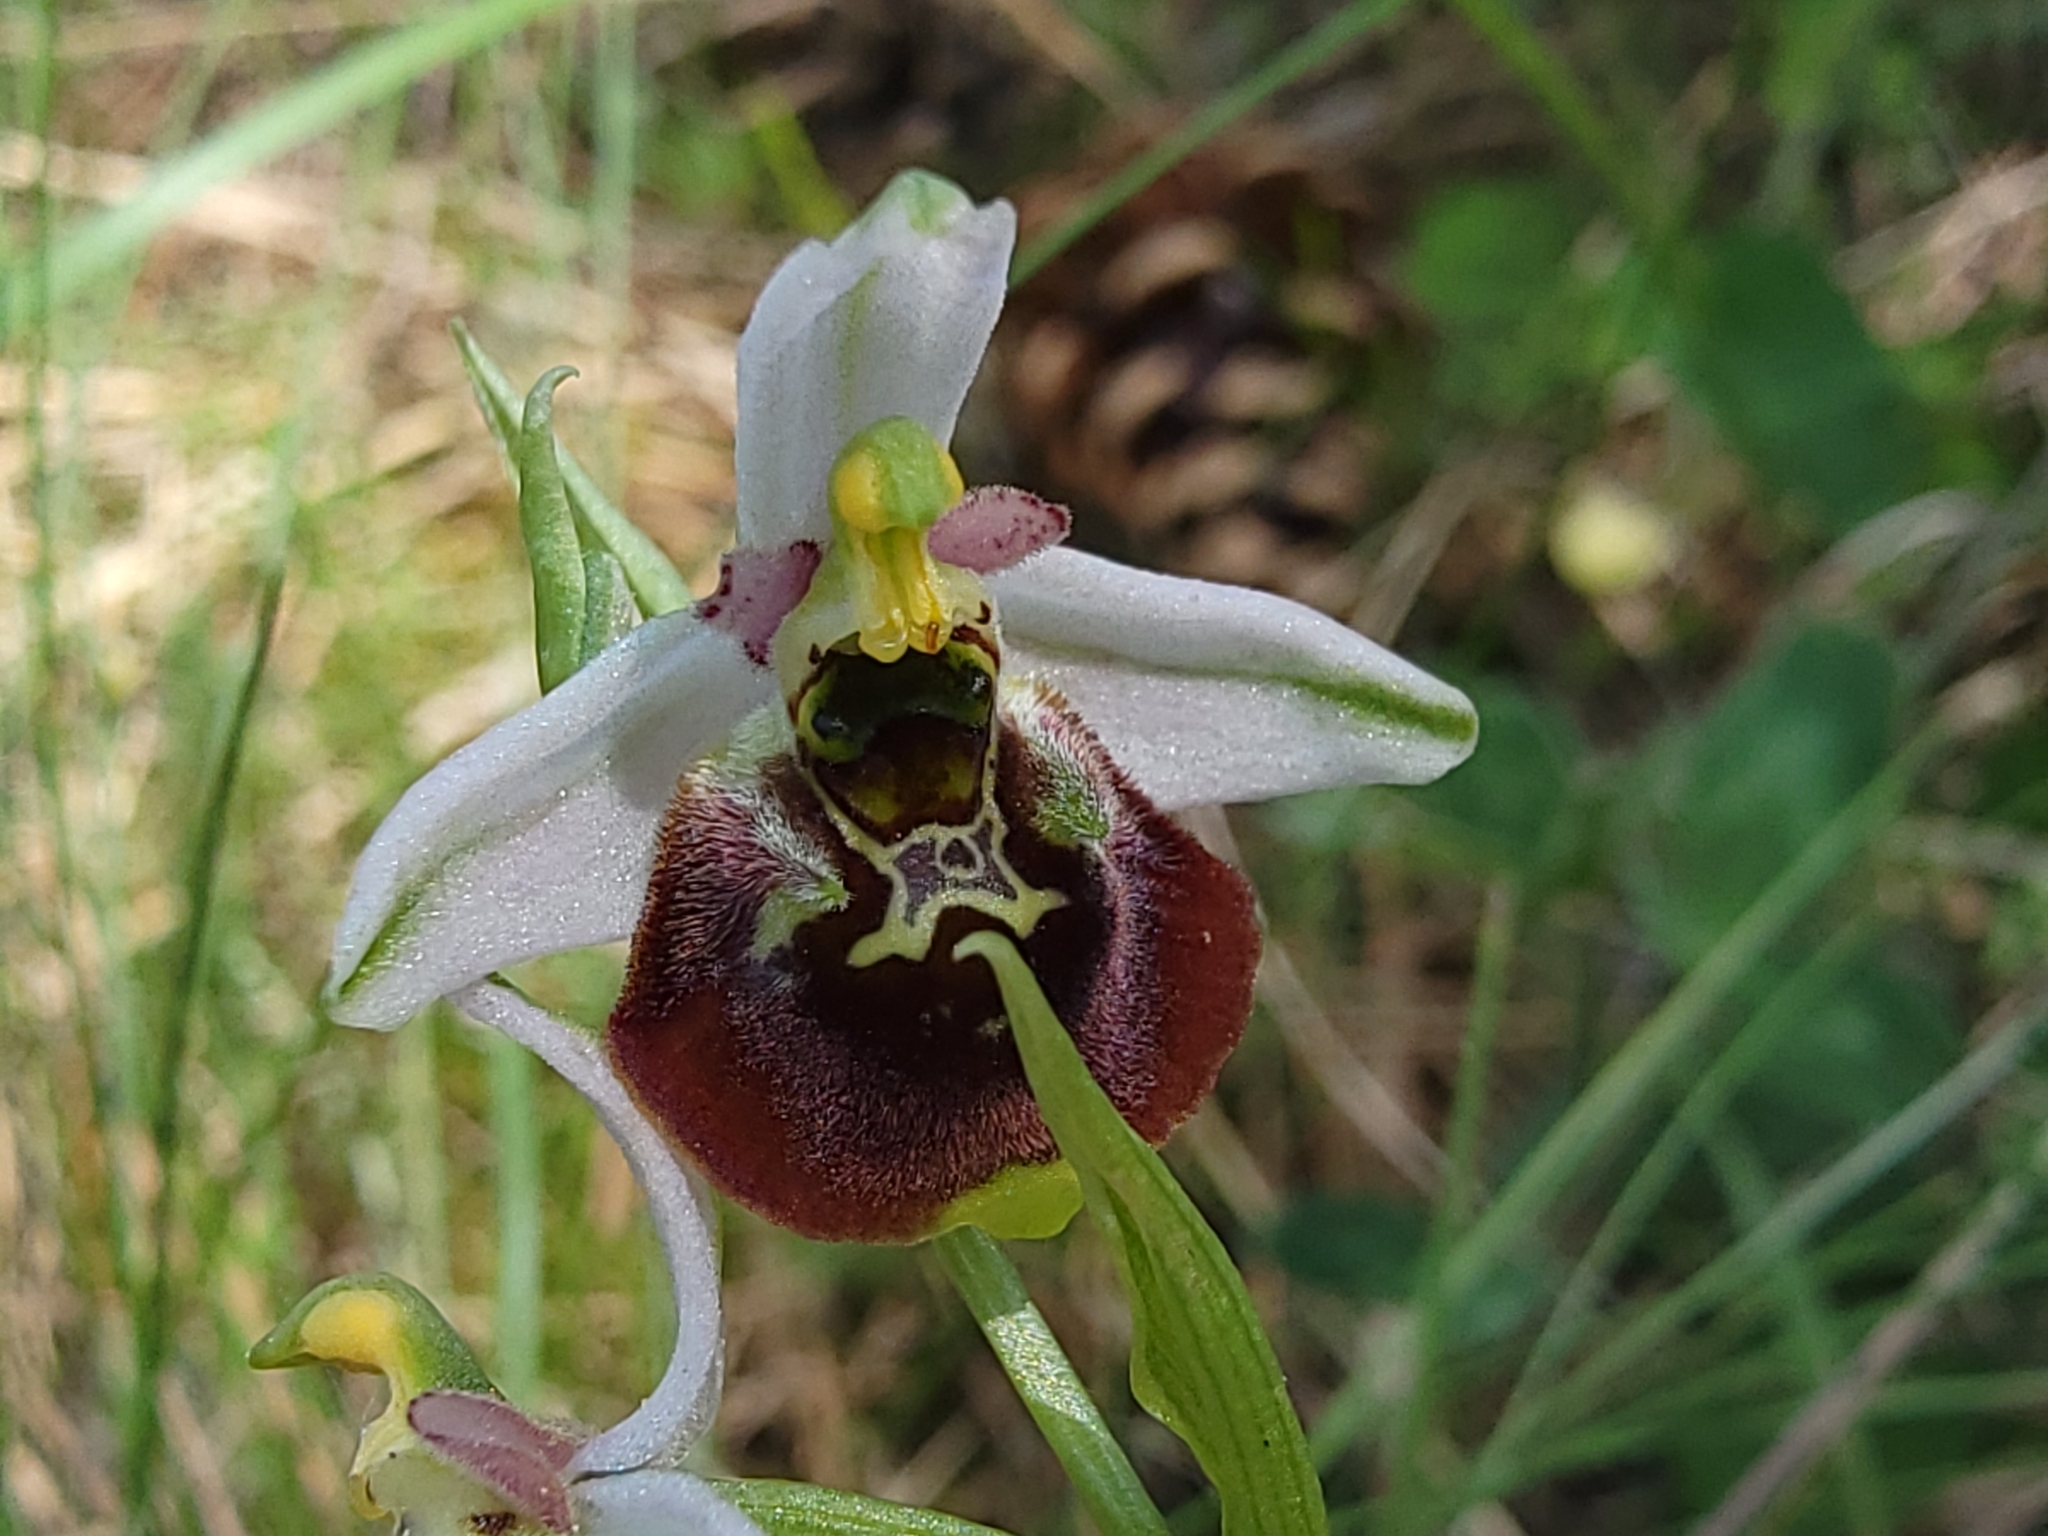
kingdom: Plantae
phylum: Tracheophyta
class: Liliopsida
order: Asparagales
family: Orchidaceae
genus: Ophrys
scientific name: Ophrys holosericea
